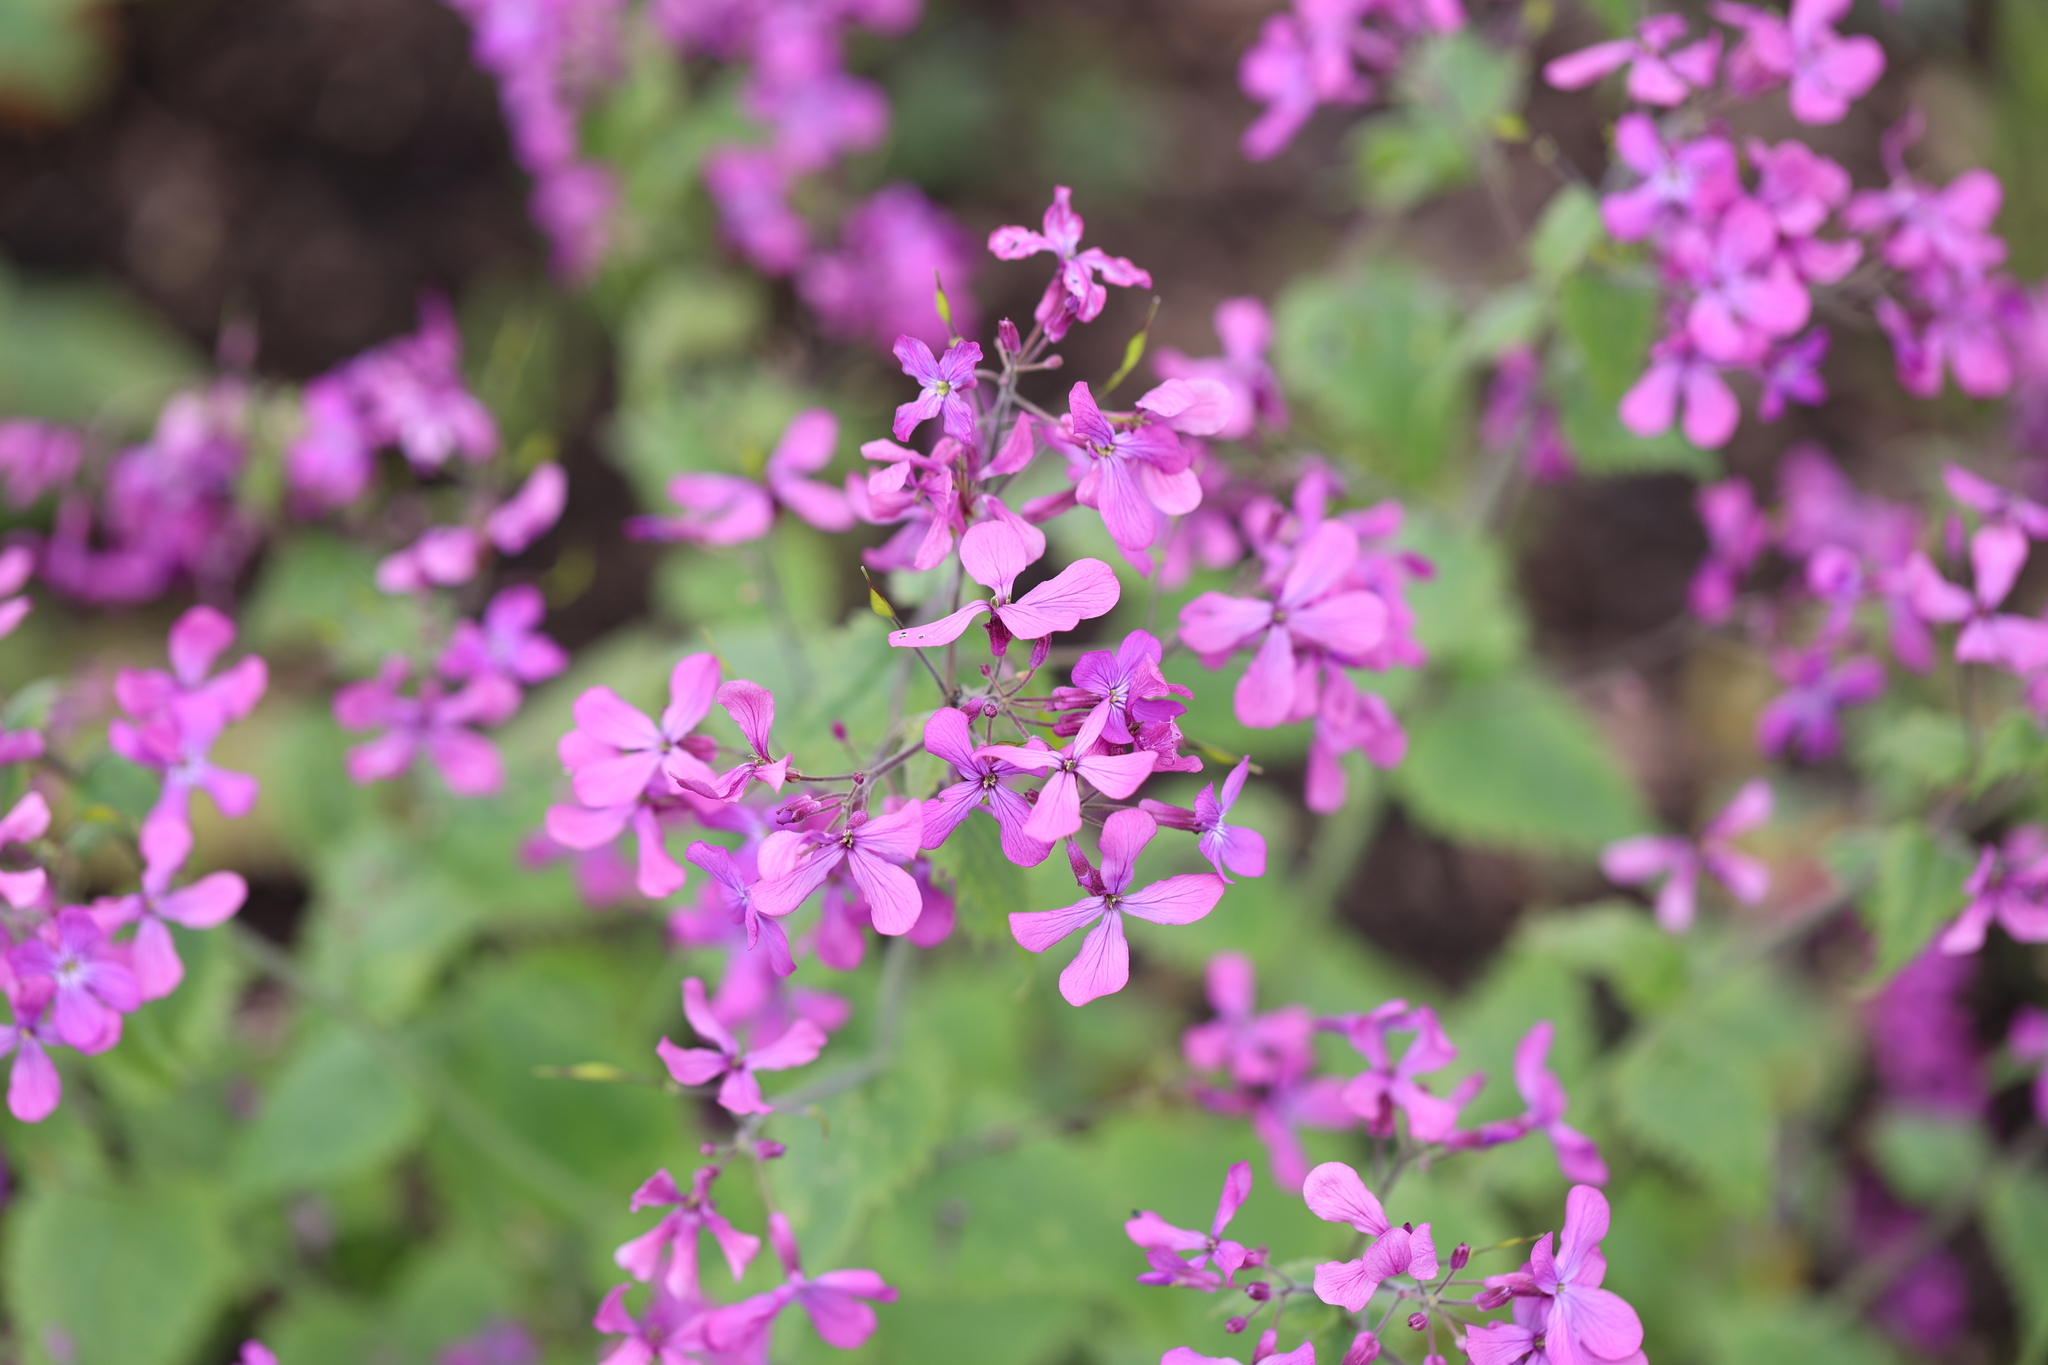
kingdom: Plantae
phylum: Tracheophyta
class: Magnoliopsida
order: Brassicales
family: Brassicaceae
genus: Lunaria
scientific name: Lunaria annua
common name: Honesty
